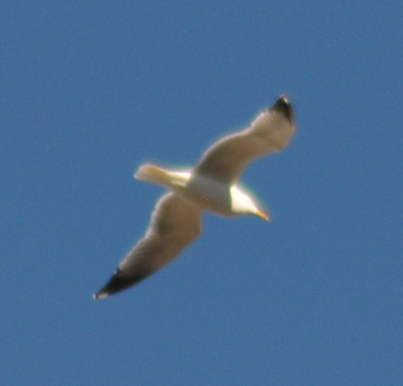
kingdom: Animalia
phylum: Chordata
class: Aves
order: Charadriiformes
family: Laridae
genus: Larus
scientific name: Larus michahellis
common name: Yellow-legged gull
